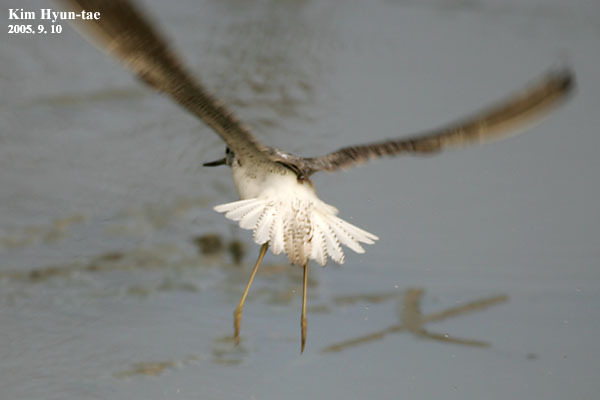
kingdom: Animalia
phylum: Chordata
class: Aves
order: Charadriiformes
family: Scolopacidae
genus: Tringa
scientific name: Tringa nebularia
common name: Common greenshank
